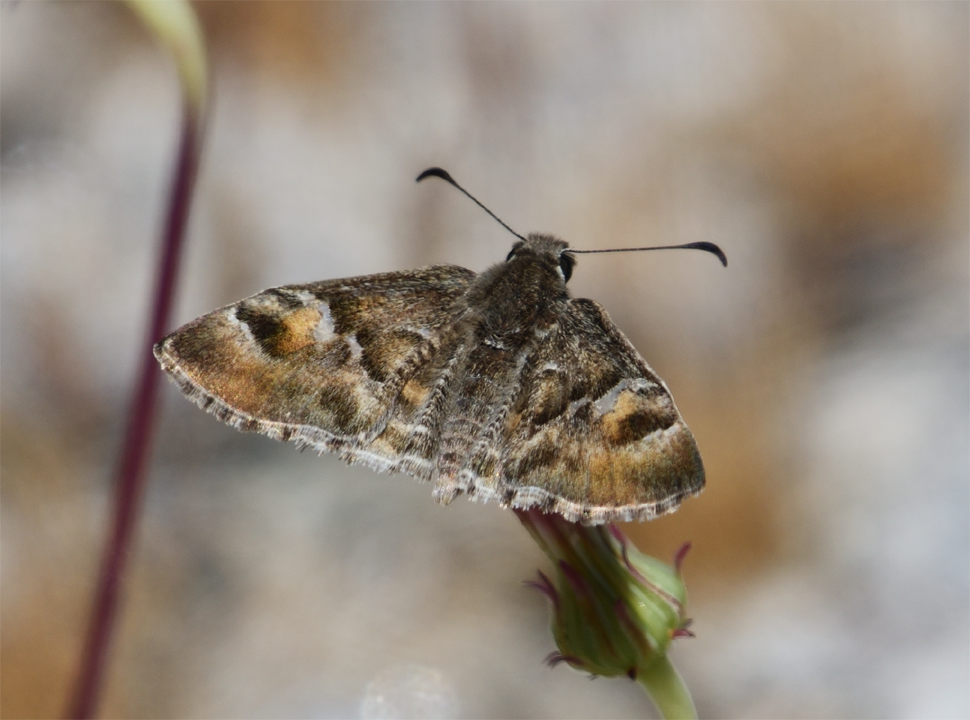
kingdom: Animalia
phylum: Arthropoda
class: Insecta
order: Lepidoptera
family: Hesperiidae
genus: Systasea
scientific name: Systasea zampa
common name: Arizona powdered-skipper
